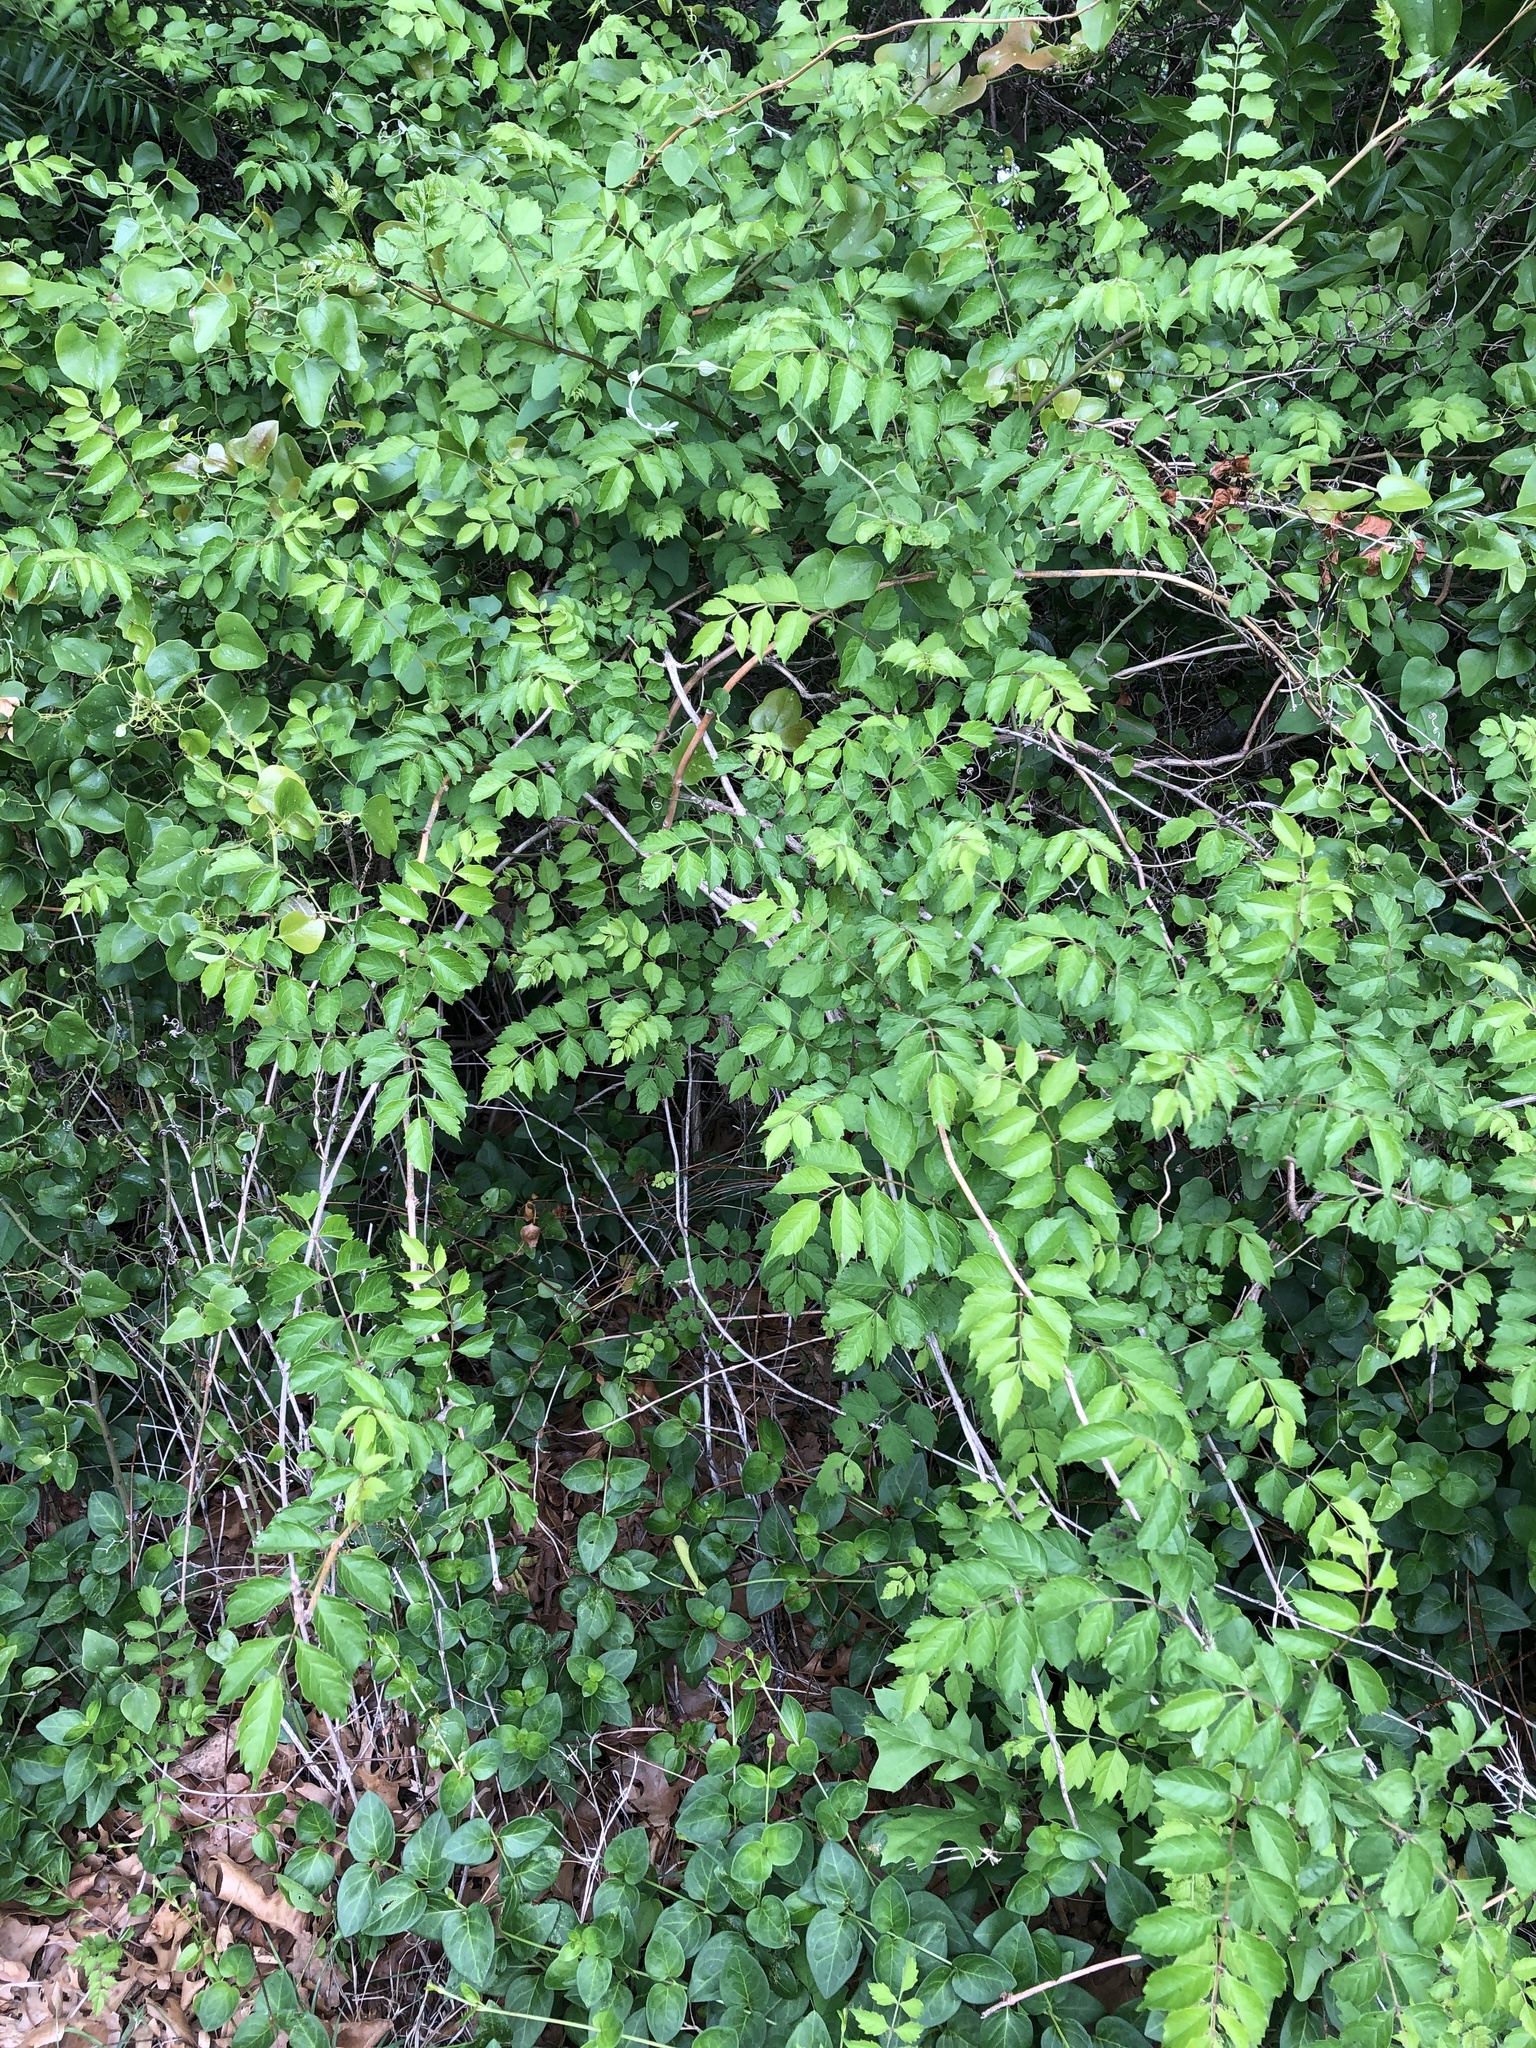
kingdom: Plantae
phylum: Tracheophyta
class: Magnoliopsida
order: Lamiales
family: Bignoniaceae
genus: Campsis
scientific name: Campsis radicans
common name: Trumpet-creeper
